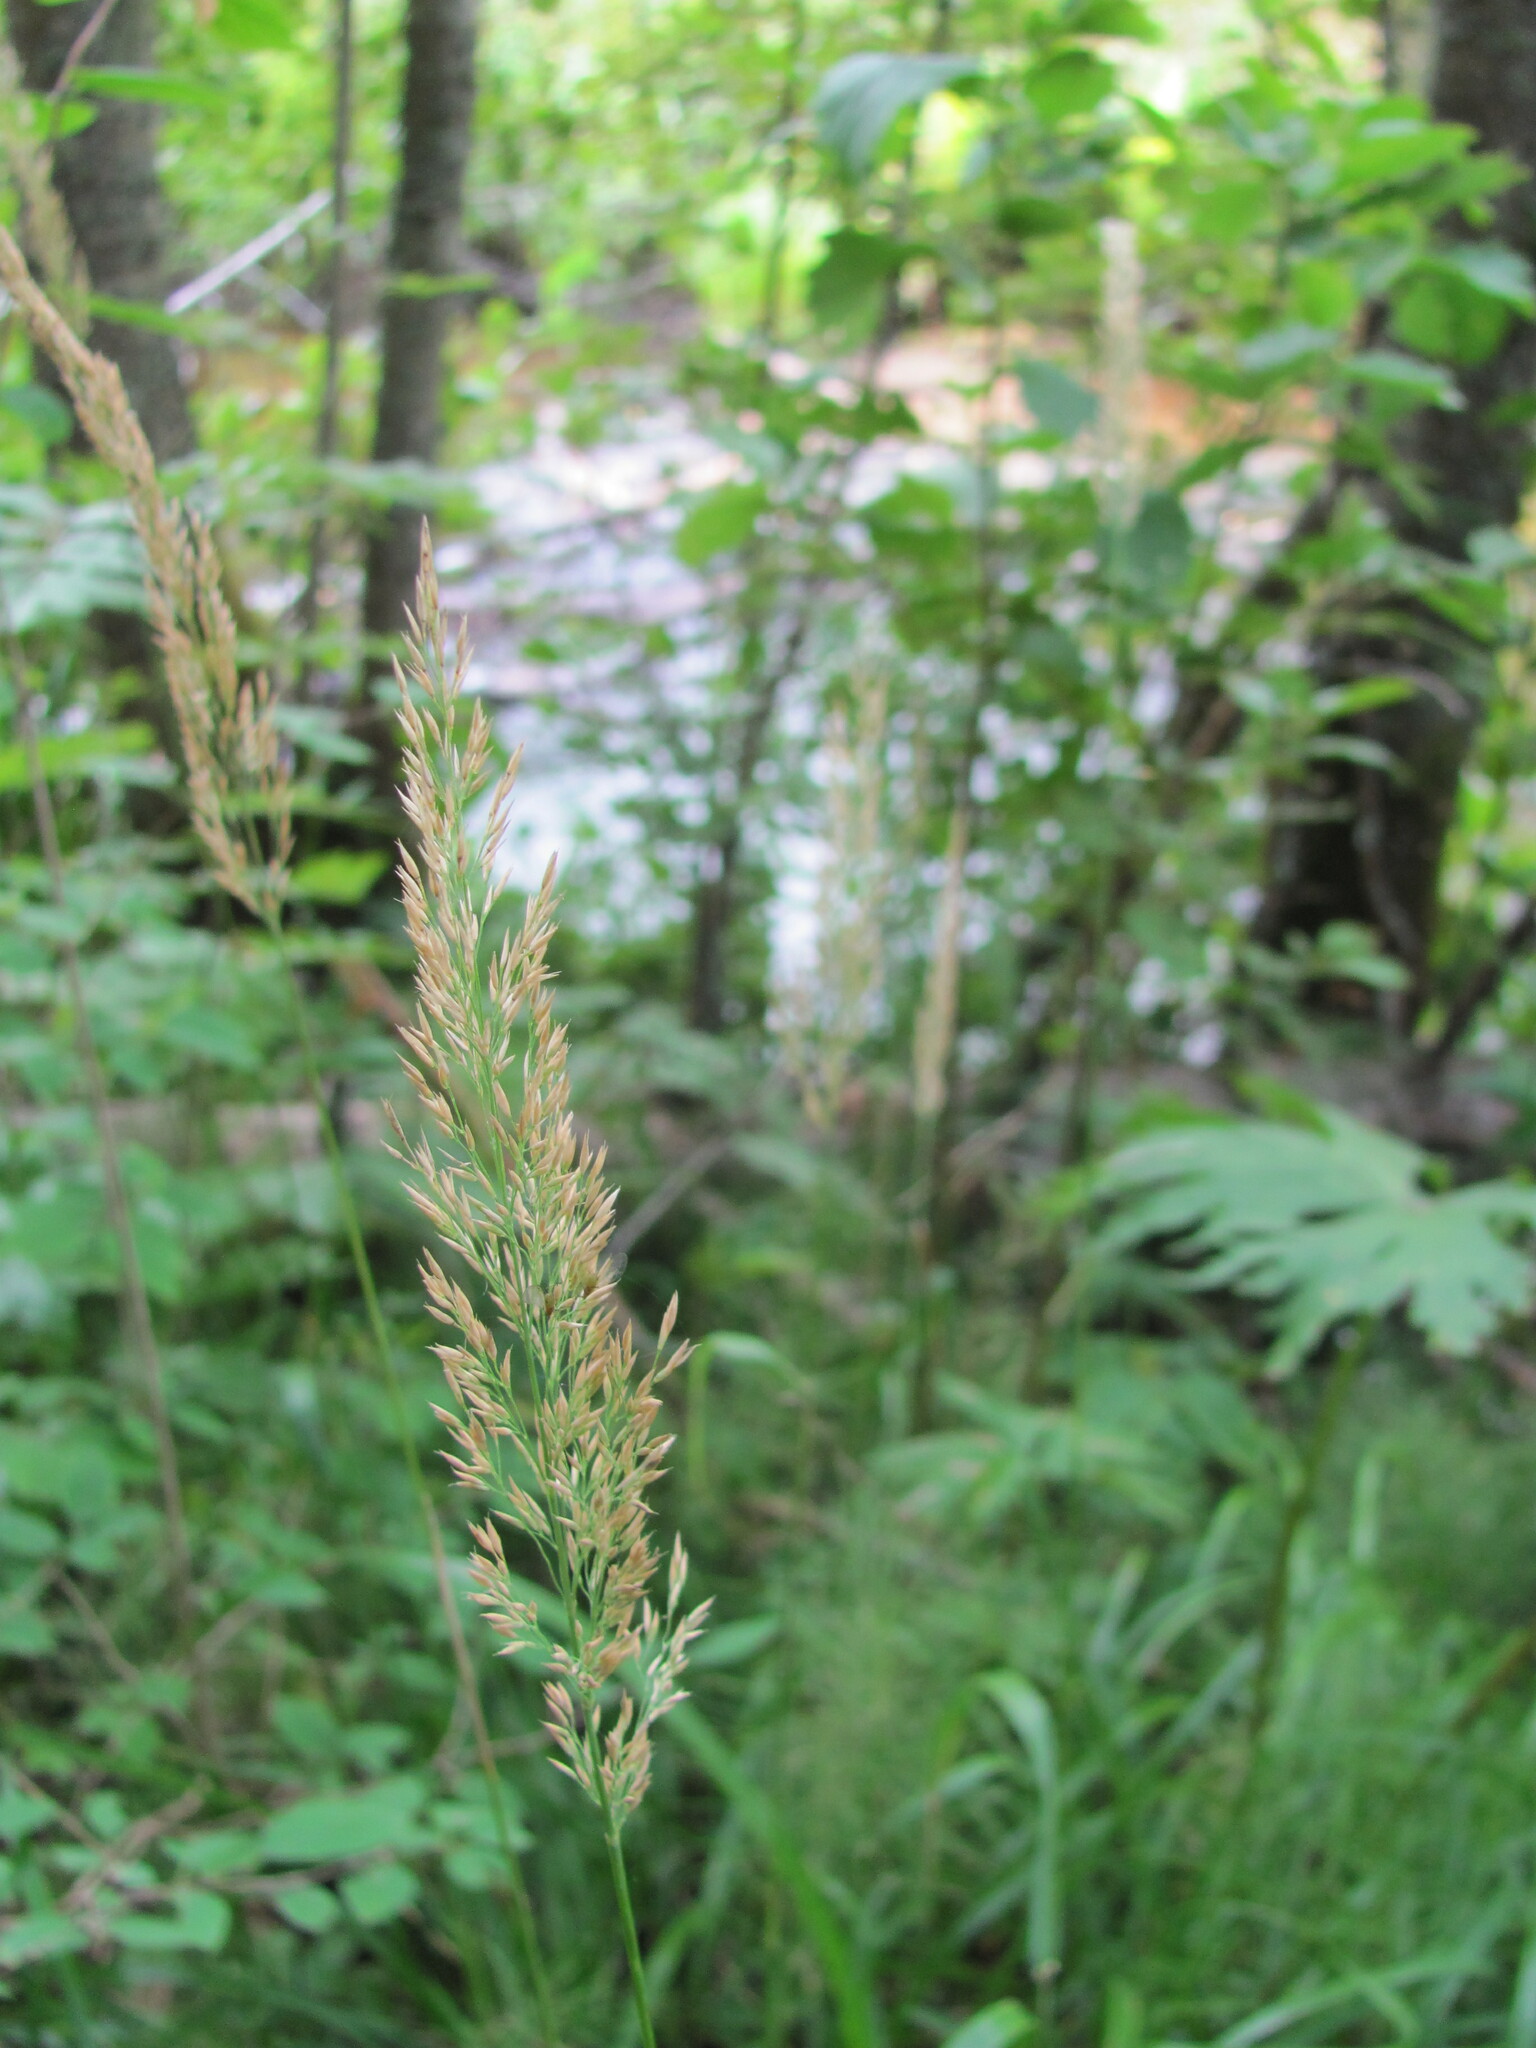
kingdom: Plantae
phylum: Tracheophyta
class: Liliopsida
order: Poales
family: Poaceae
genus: Calamagrostis
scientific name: Calamagrostis obtusata
